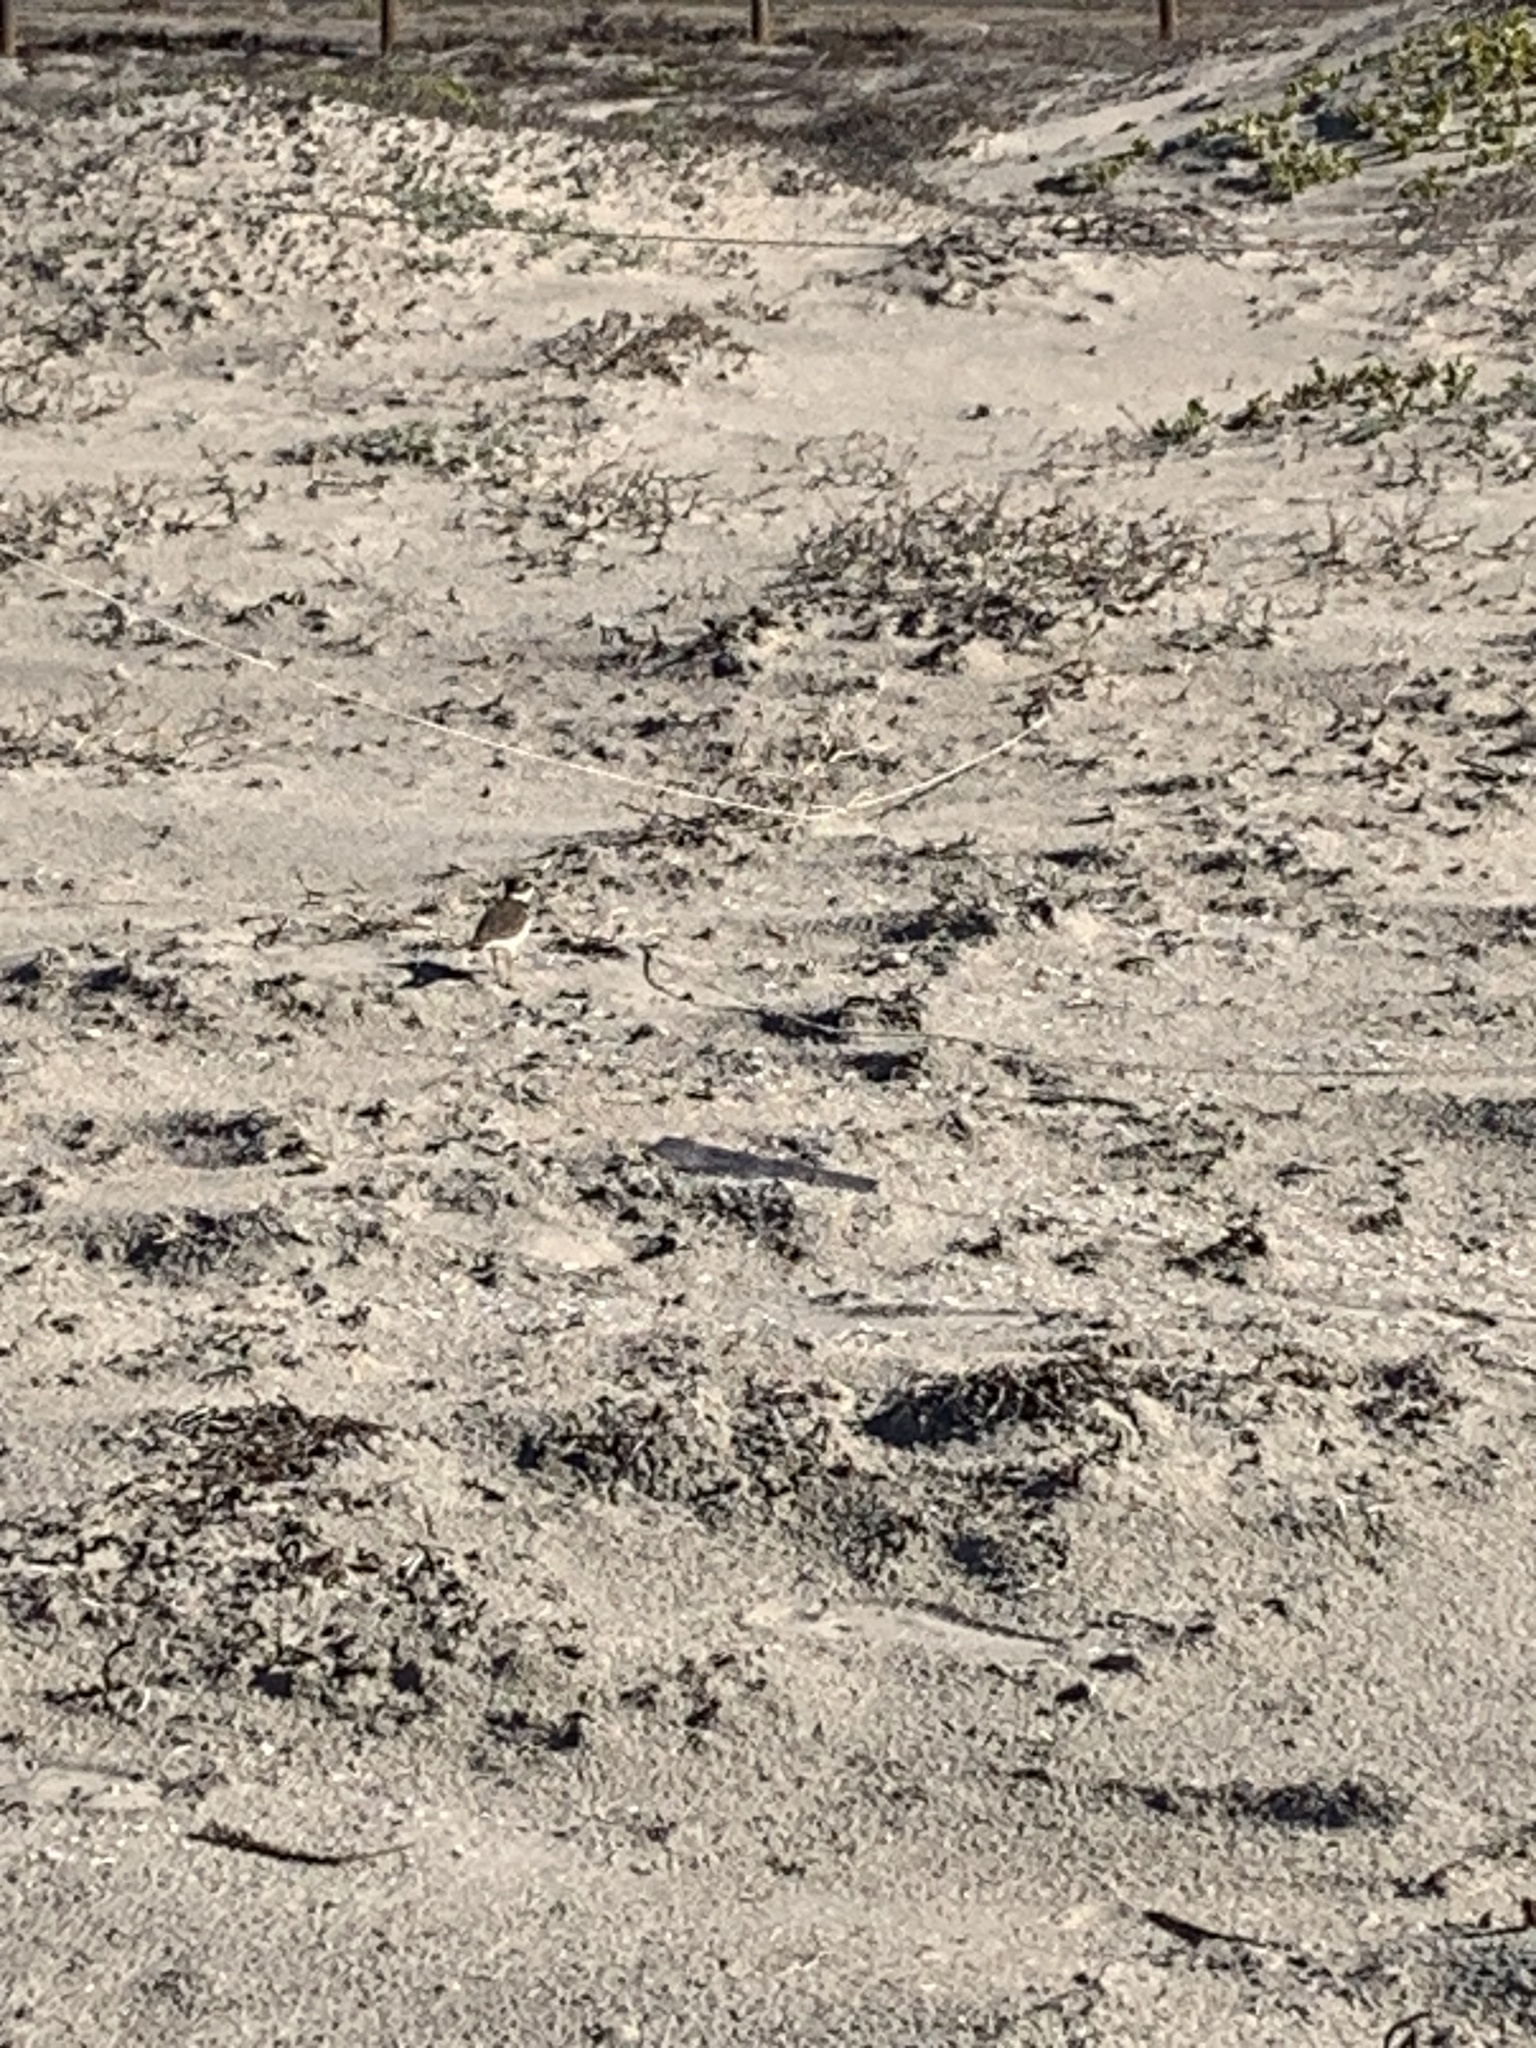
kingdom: Animalia
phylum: Chordata
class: Aves
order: Charadriiformes
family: Charadriidae
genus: Anarhynchus
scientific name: Anarhynchus
